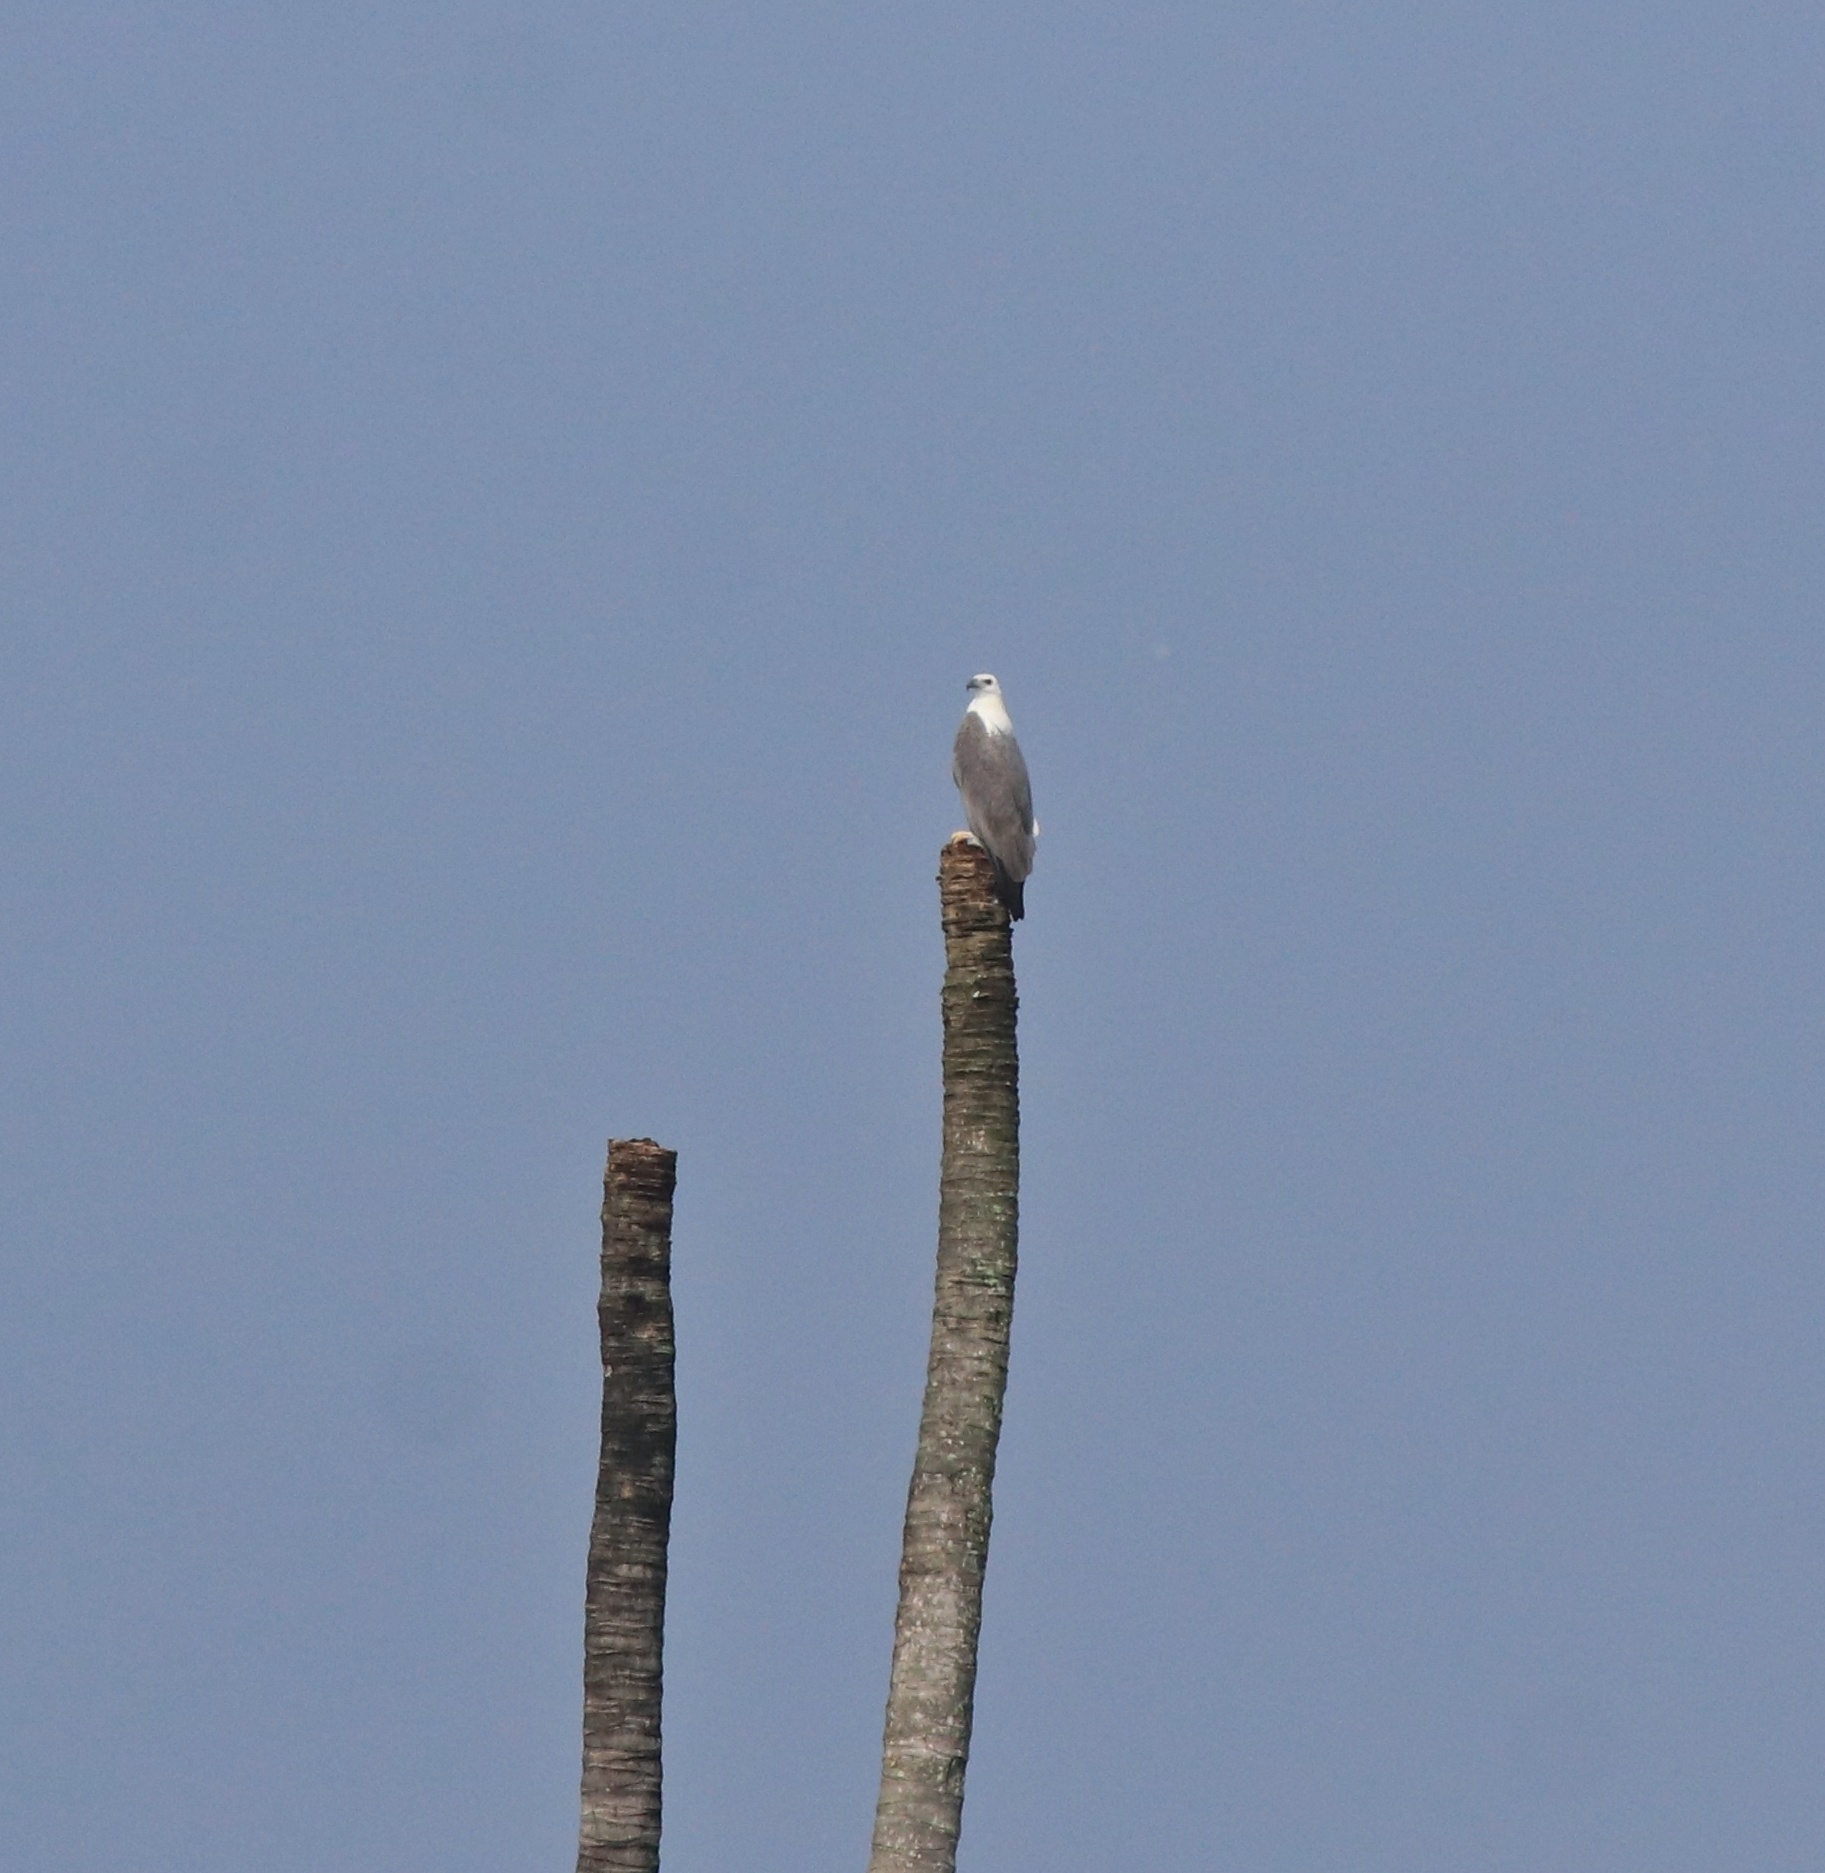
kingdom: Animalia
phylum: Chordata
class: Aves
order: Accipitriformes
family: Accipitridae
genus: Haliaeetus
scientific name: Haliaeetus leucogaster
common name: White-bellied sea eagle
